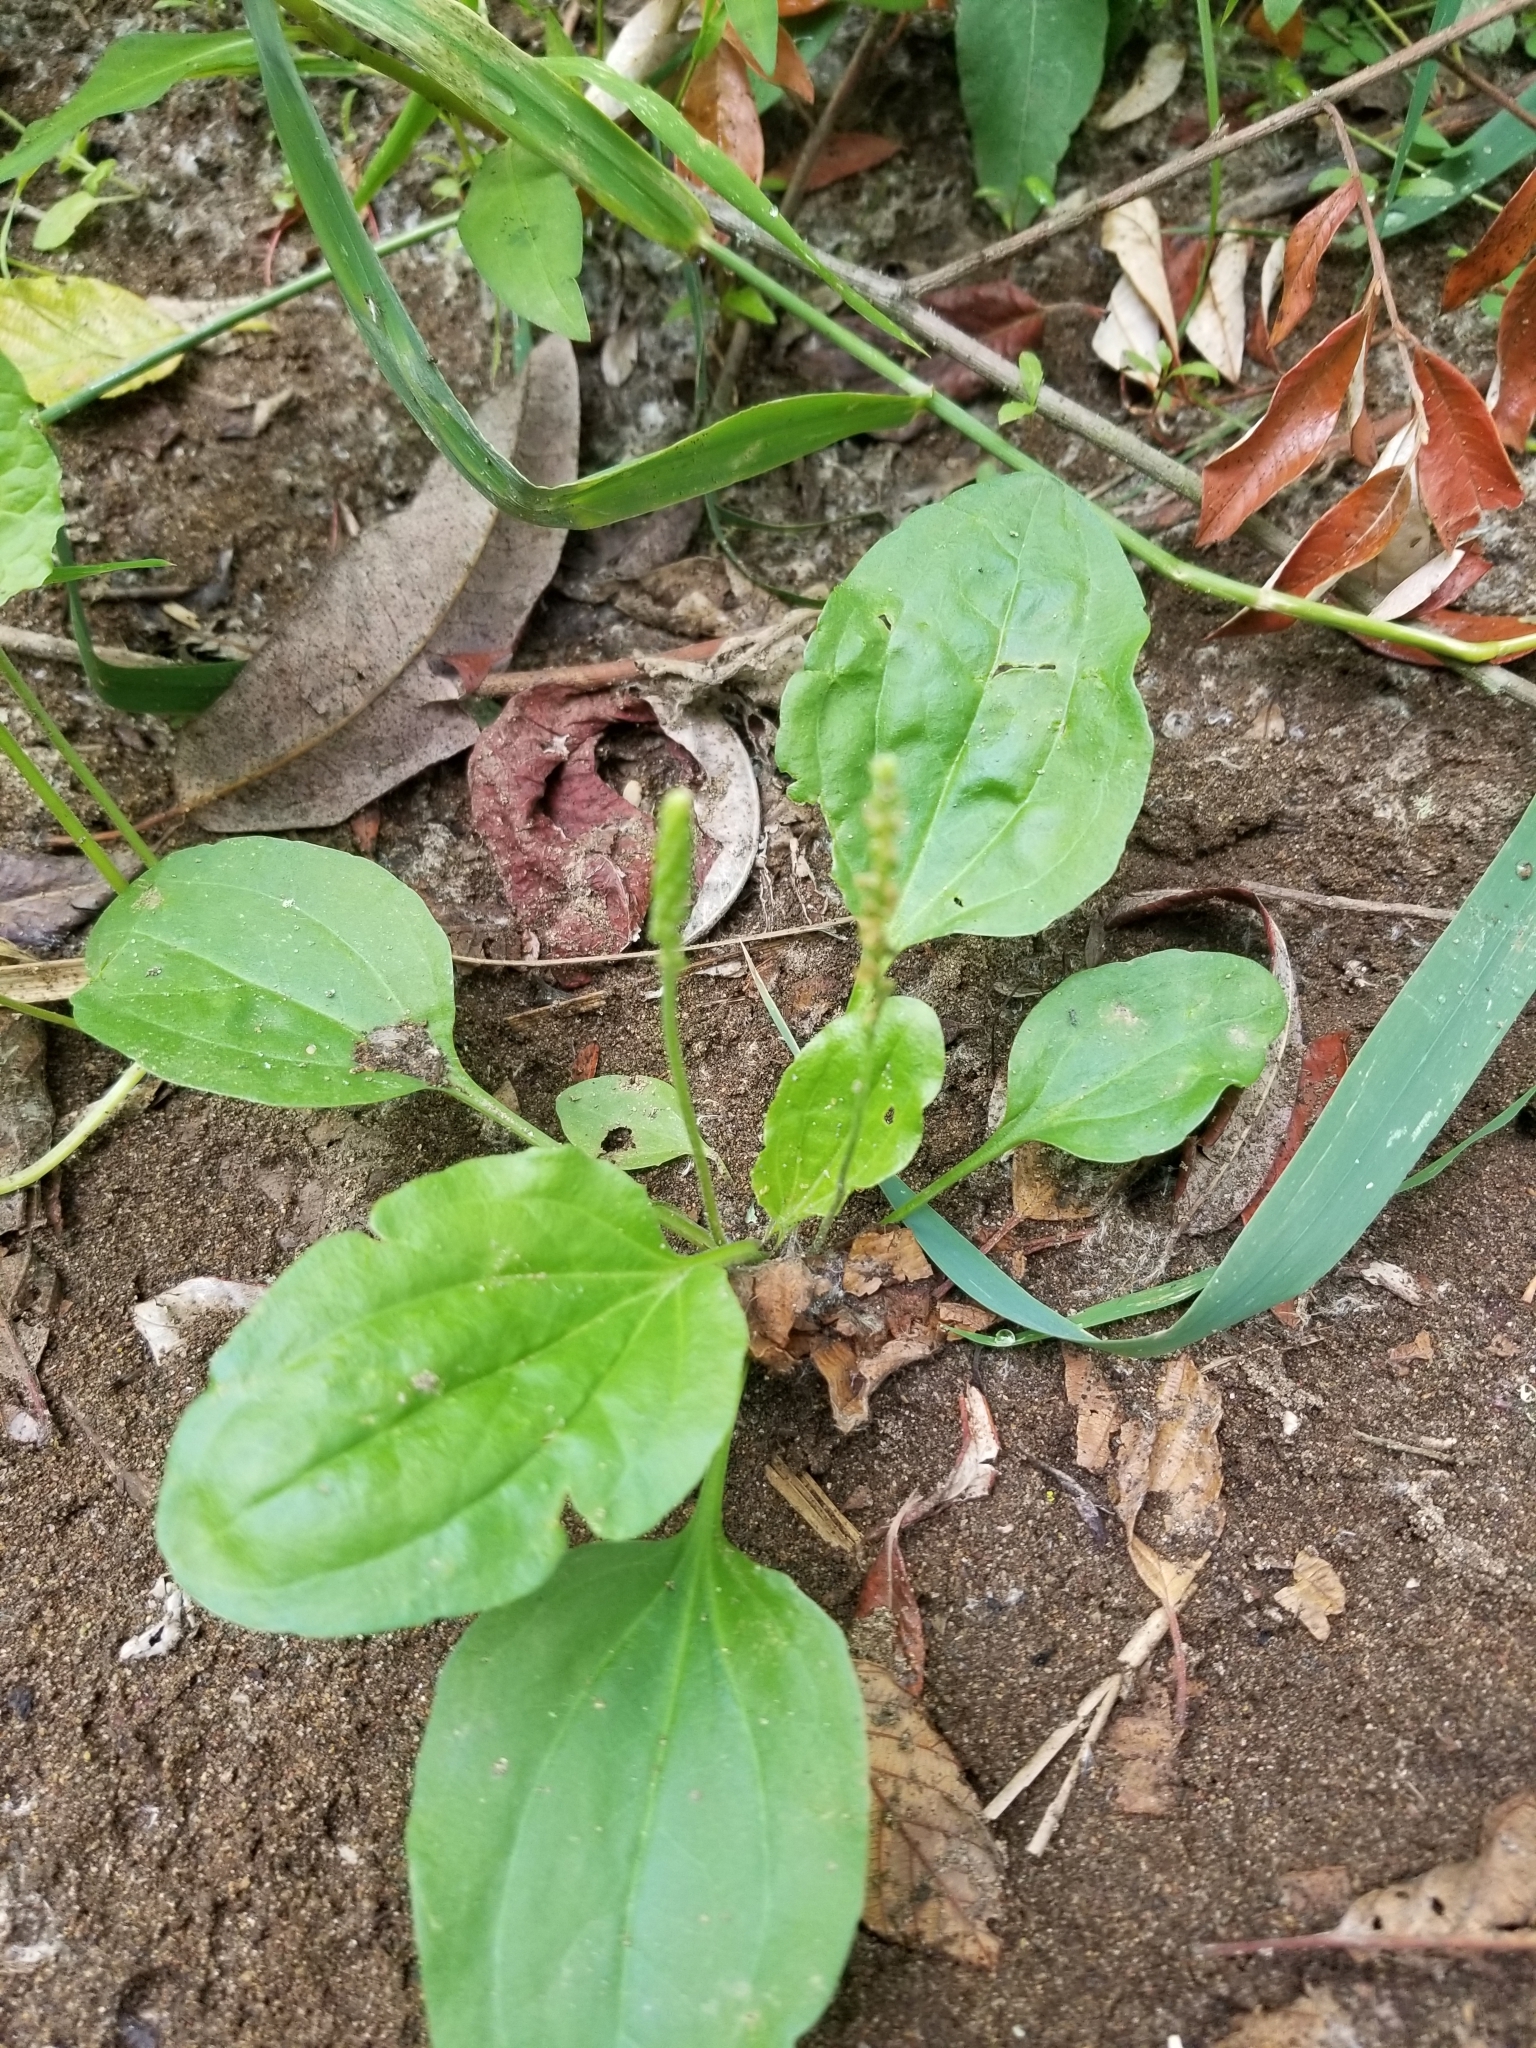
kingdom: Plantae
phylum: Tracheophyta
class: Magnoliopsida
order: Lamiales
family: Plantaginaceae
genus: Plantago
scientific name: Plantago major
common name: Common plantain
